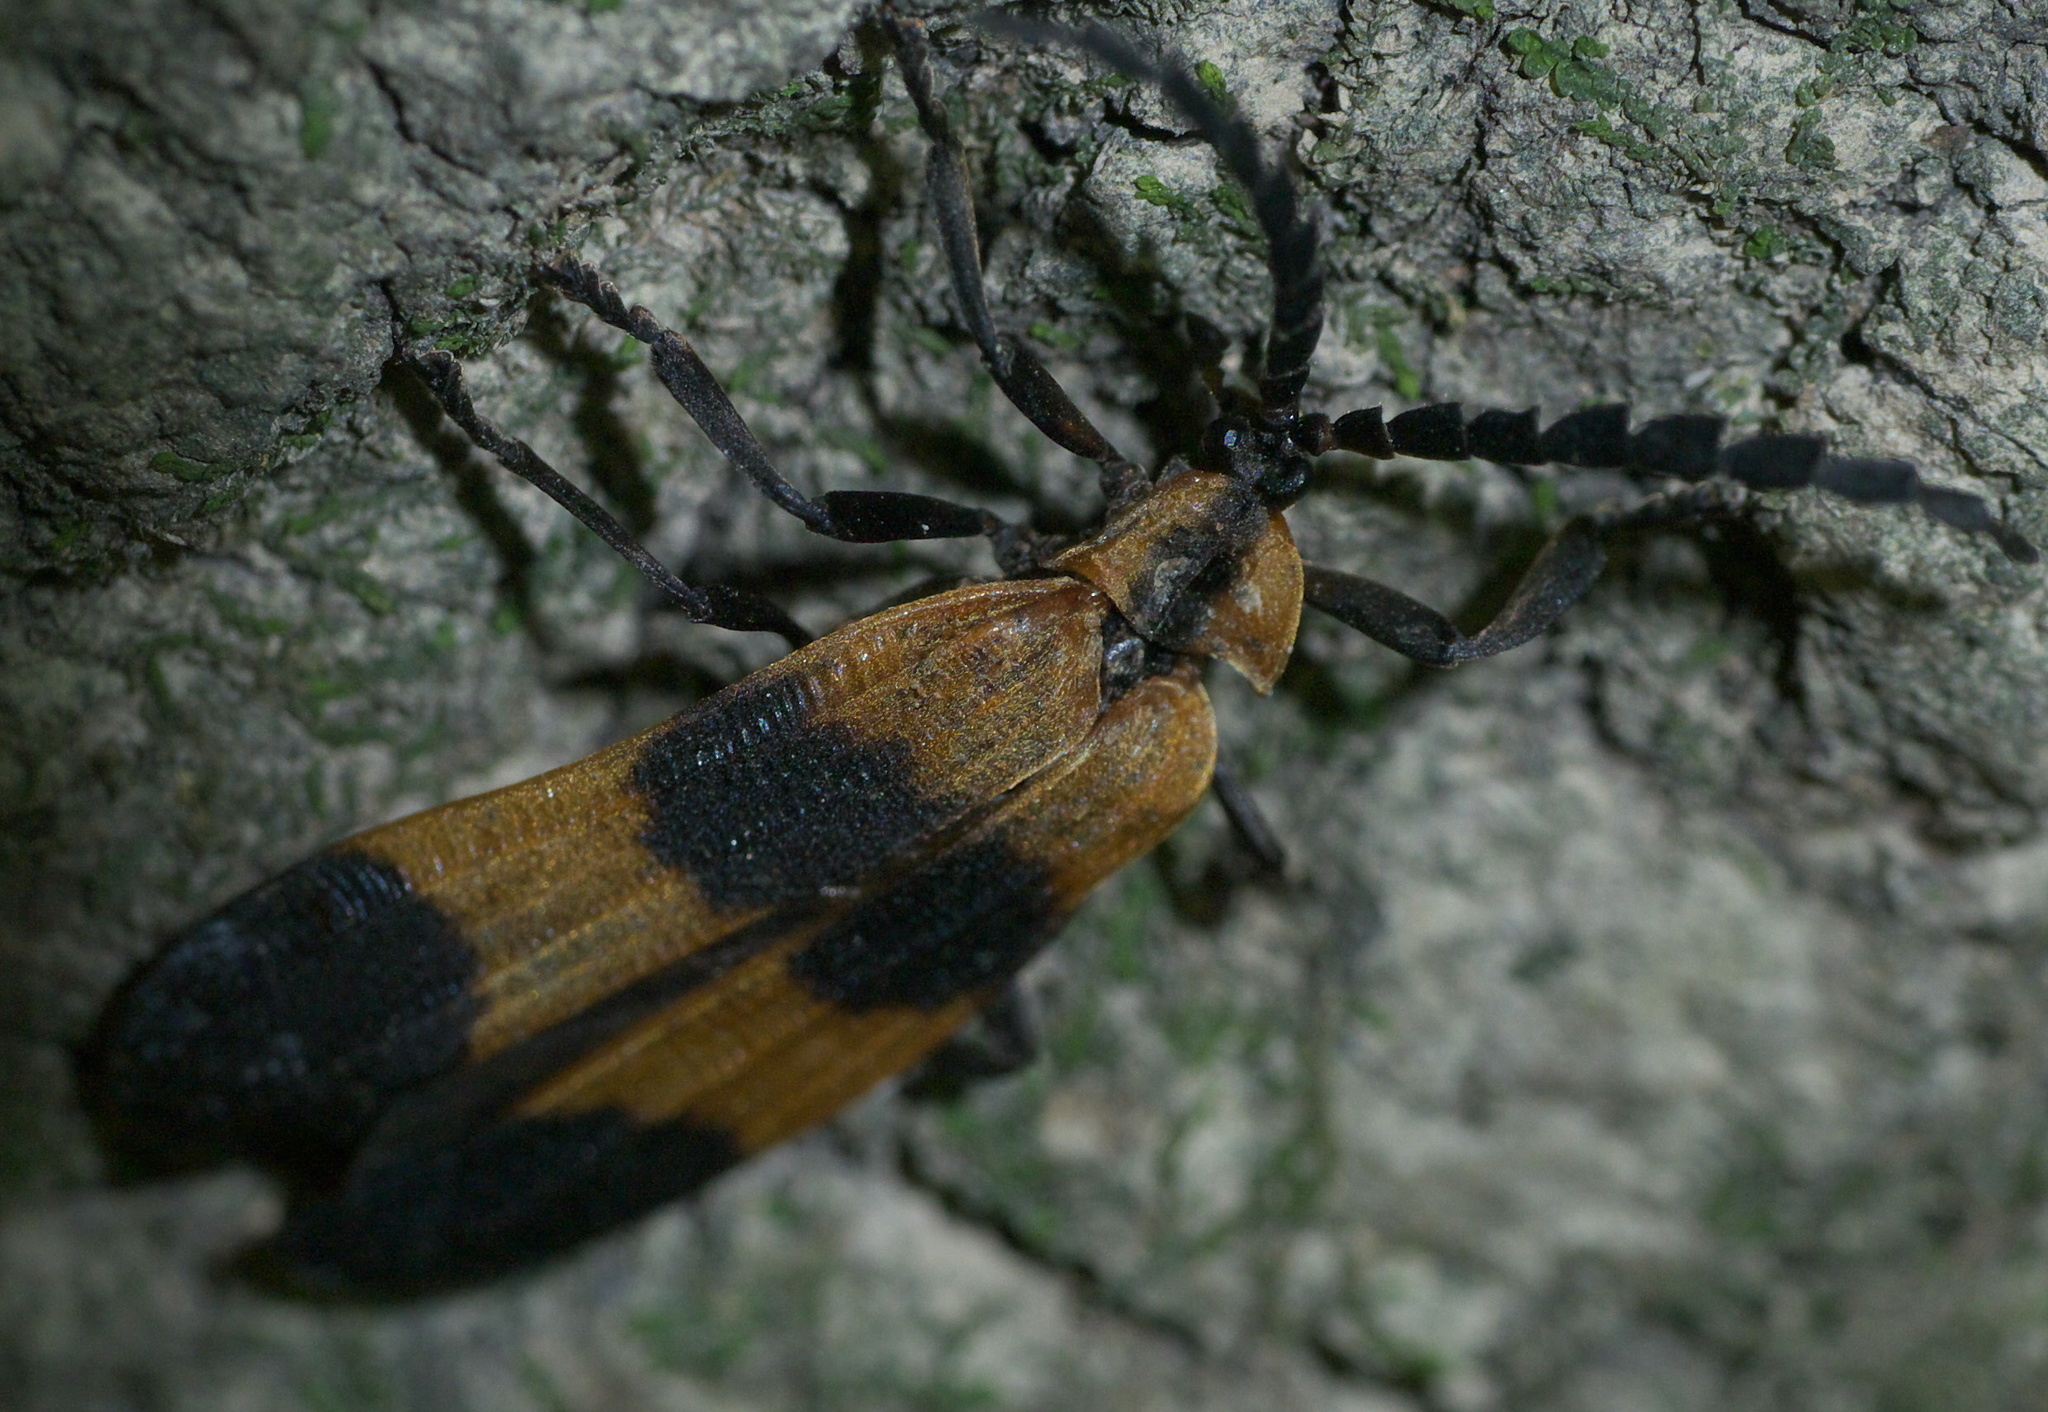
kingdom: Animalia
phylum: Arthropoda
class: Insecta
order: Coleoptera
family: Lycidae
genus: Calopteron
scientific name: Calopteron reticulatum
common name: Banded net-winged beetle
